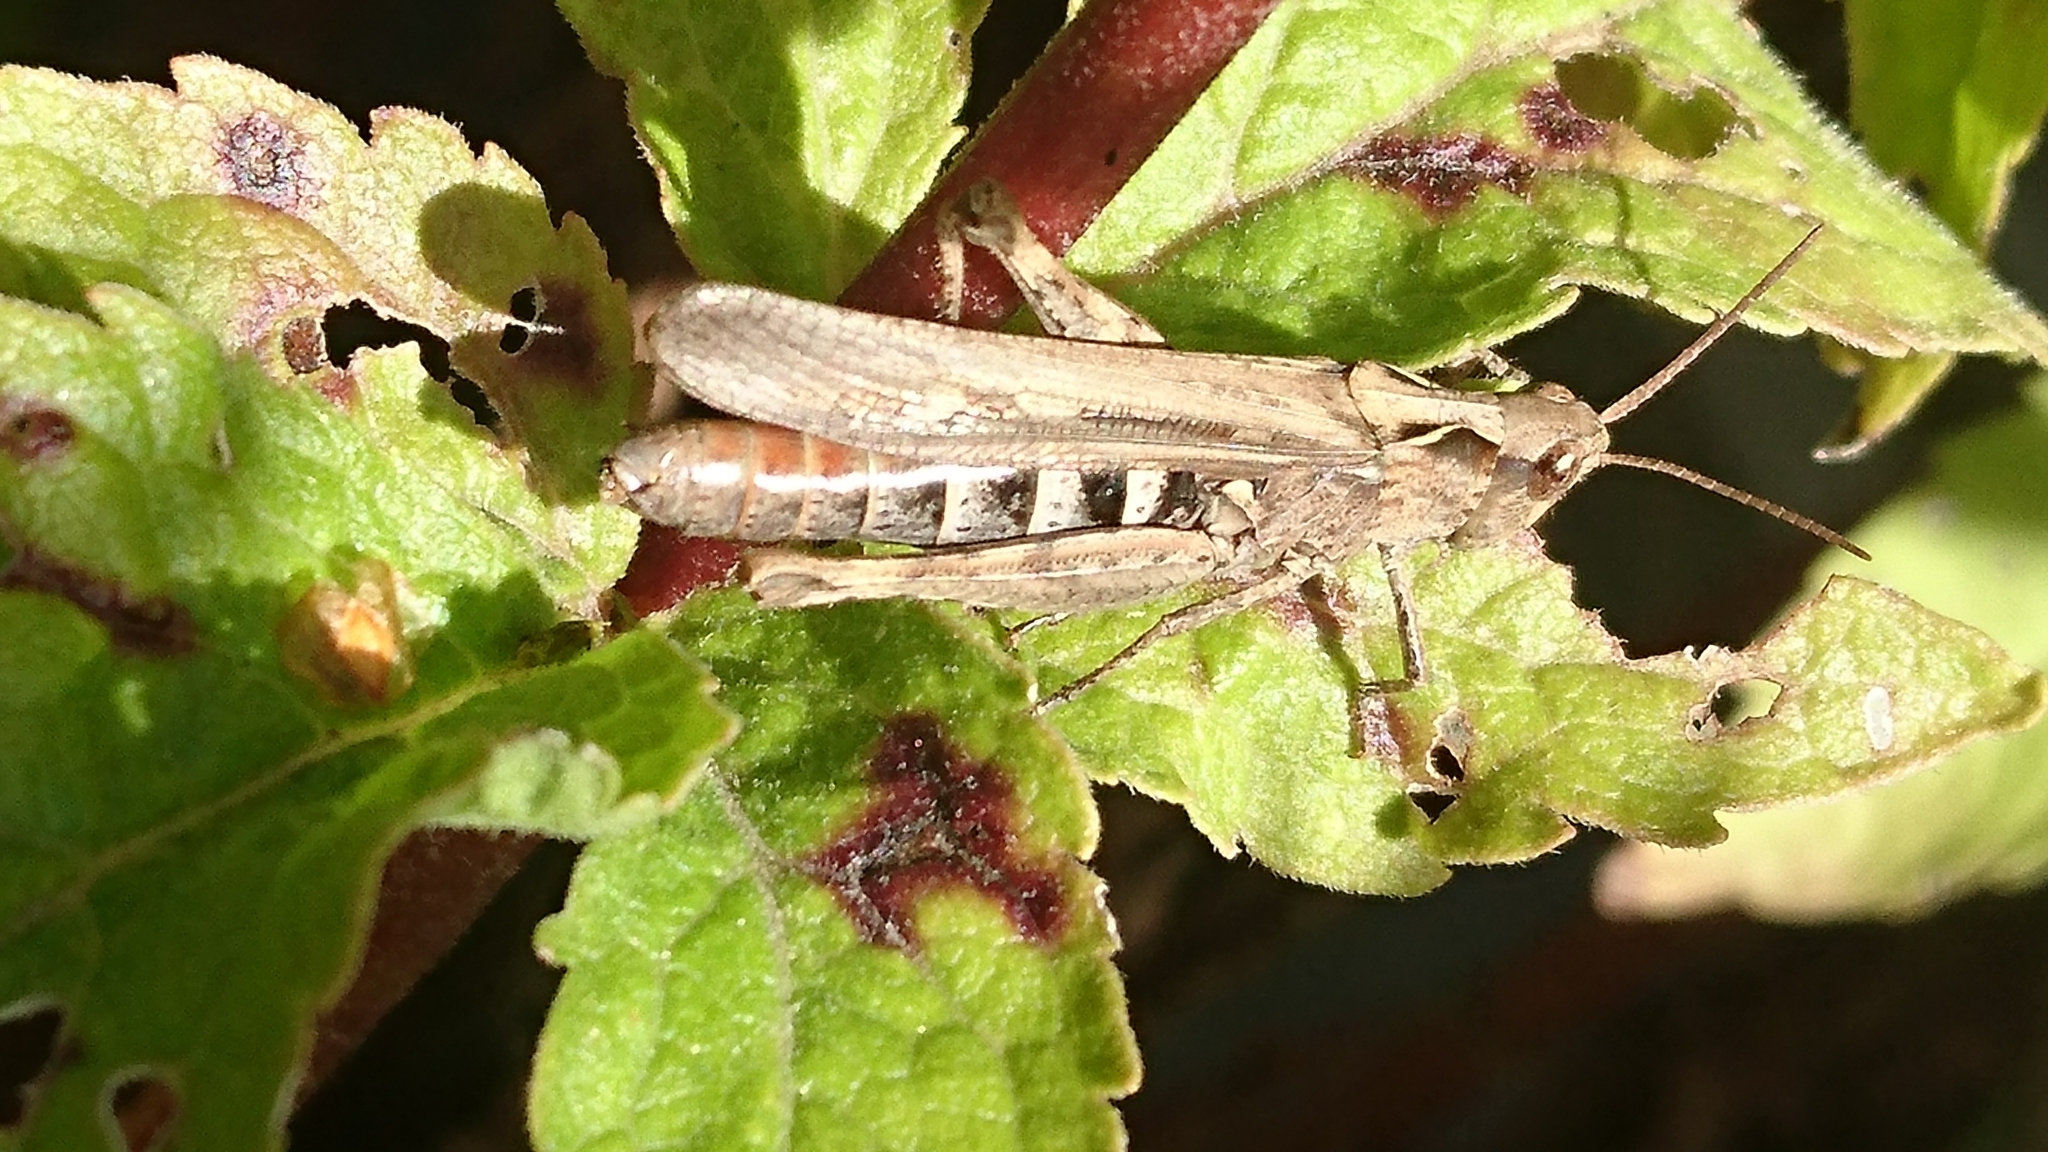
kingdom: Animalia
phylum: Arthropoda
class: Insecta
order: Orthoptera
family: Acrididae
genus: Chorthippus
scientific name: Chorthippus brunneus
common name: Field grasshopper
